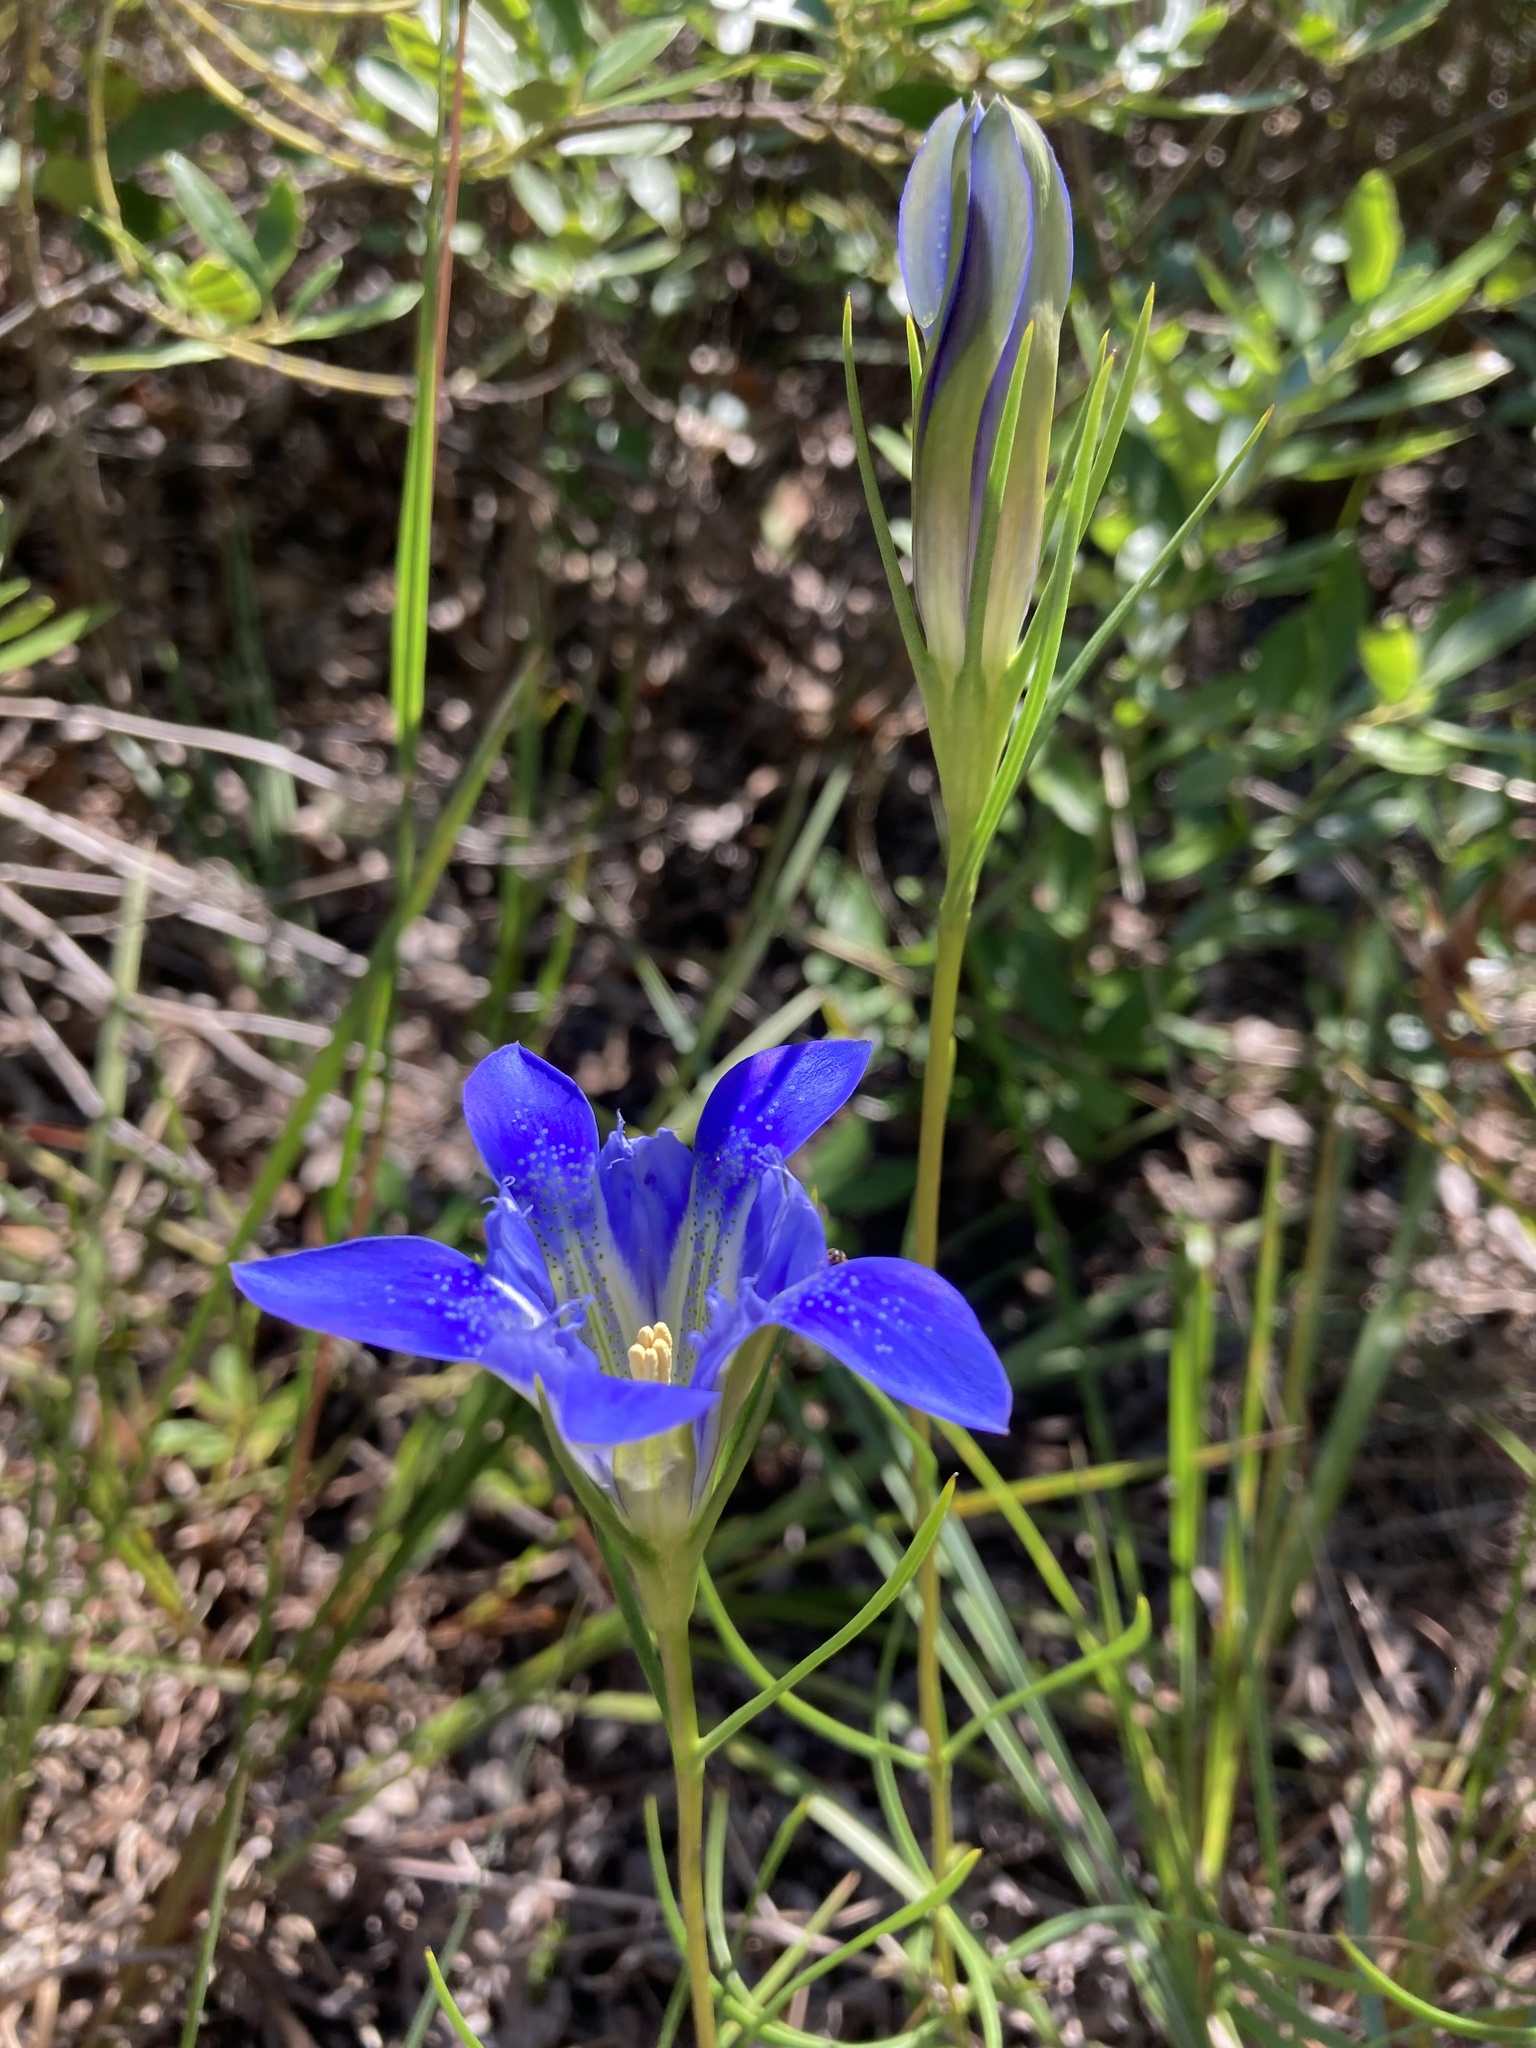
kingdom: Plantae
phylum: Tracheophyta
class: Magnoliopsida
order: Gentianales
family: Gentianaceae
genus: Gentiana
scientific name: Gentiana autumnalis
